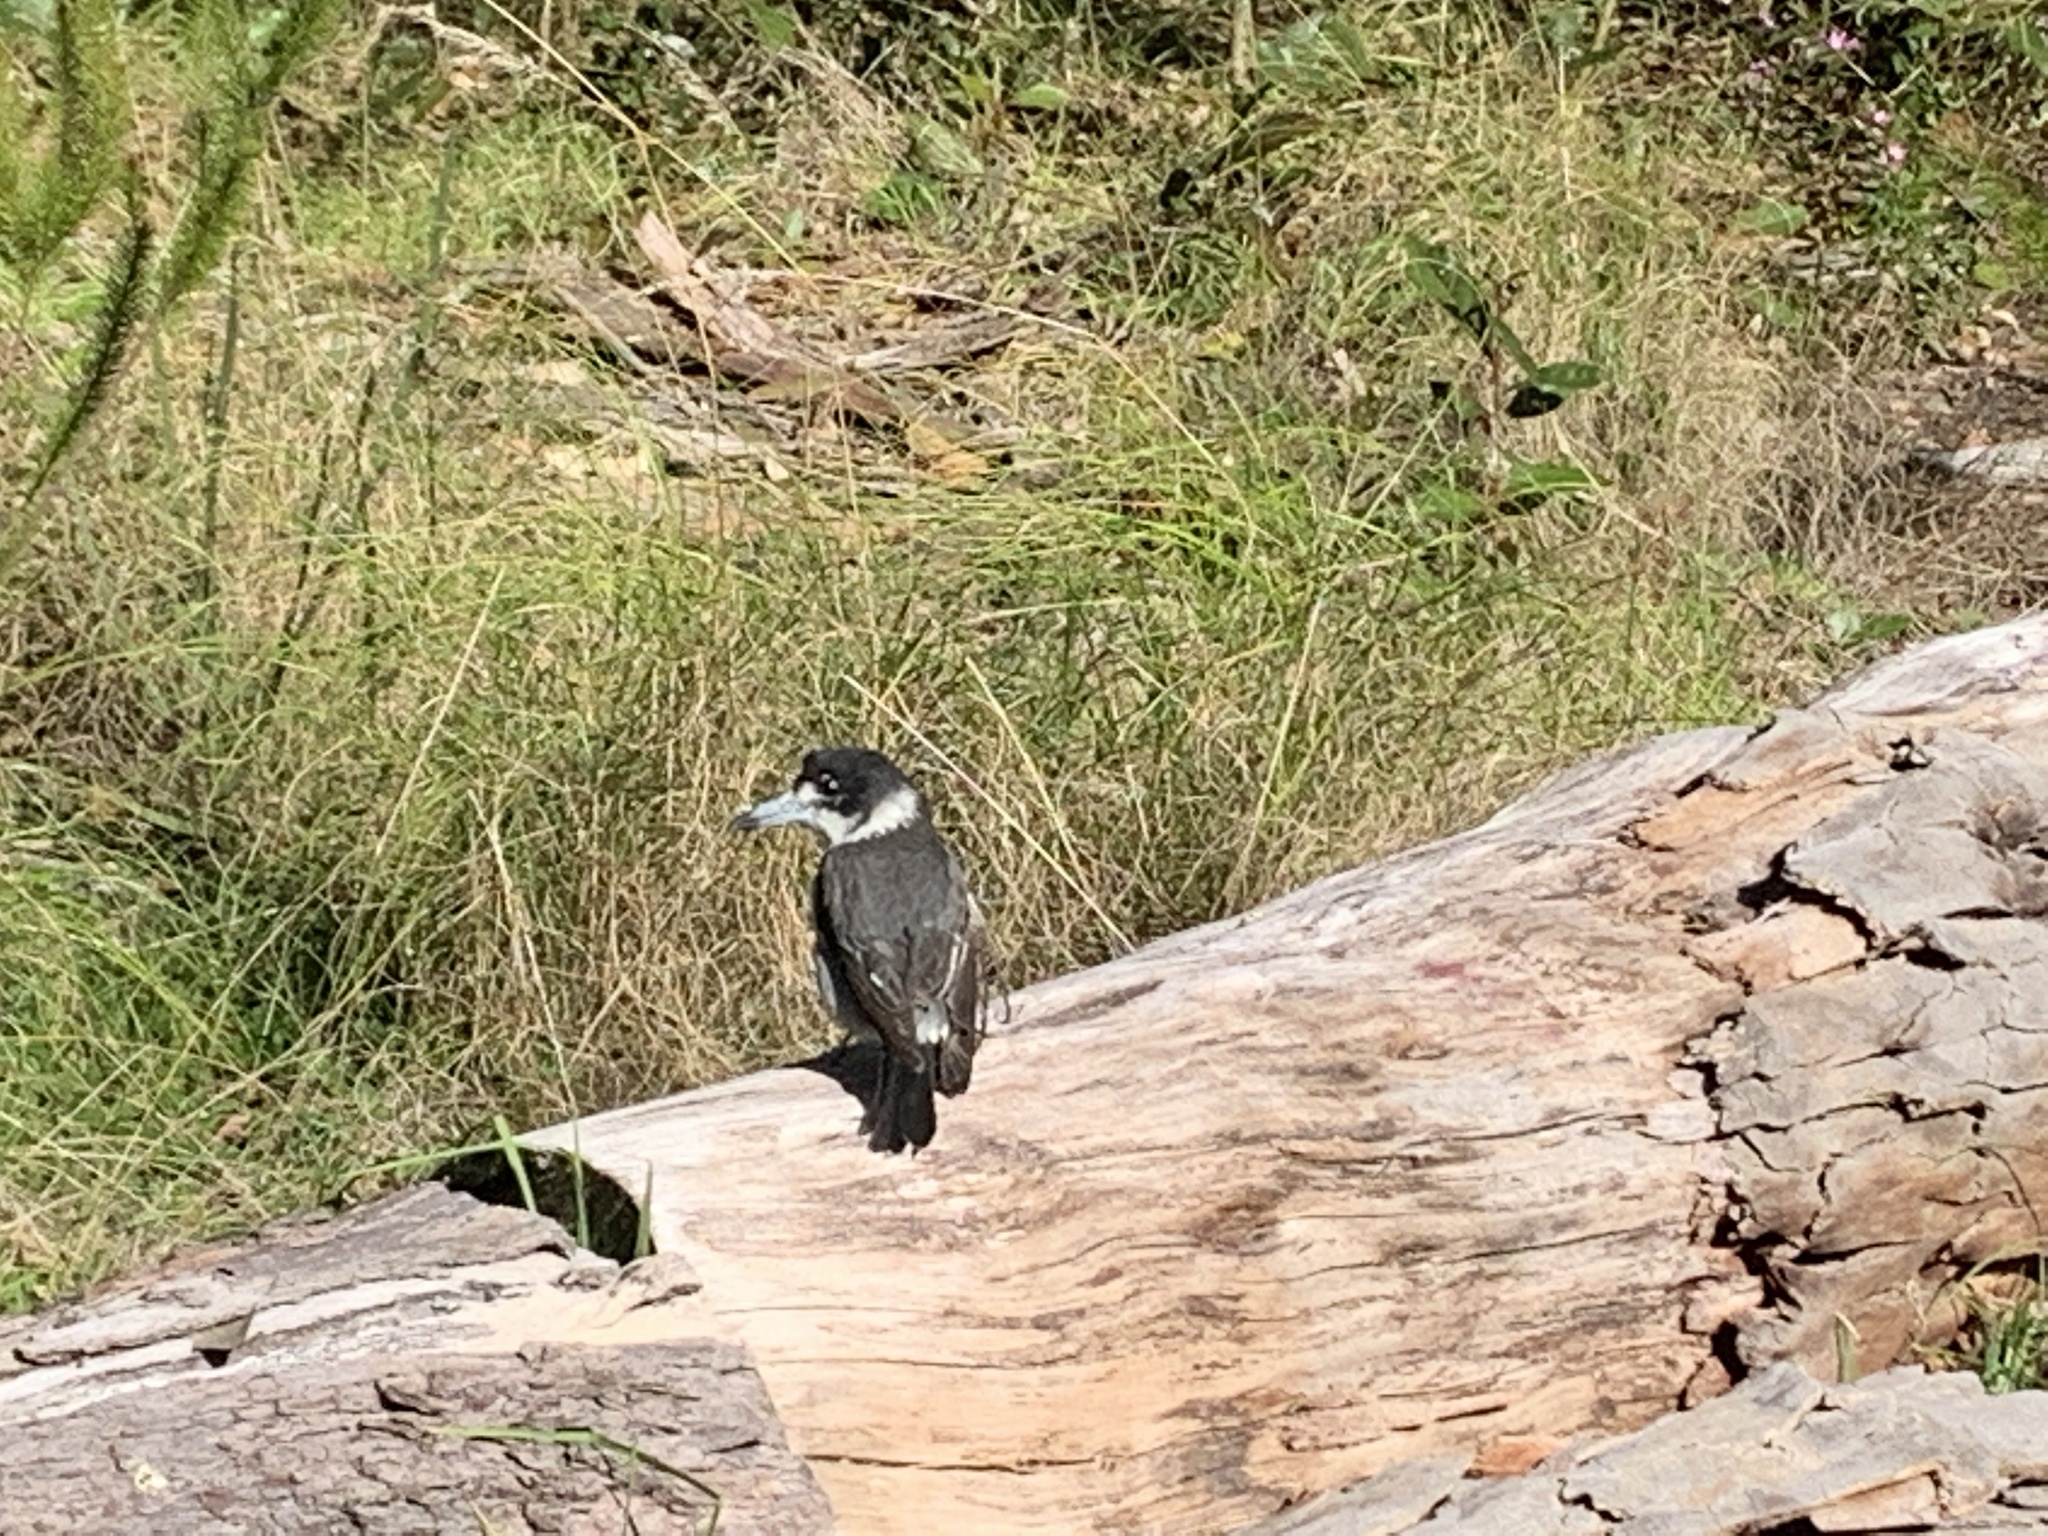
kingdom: Animalia
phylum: Chordata
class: Aves
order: Passeriformes
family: Cracticidae
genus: Cracticus
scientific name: Cracticus torquatus
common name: Grey butcherbird
